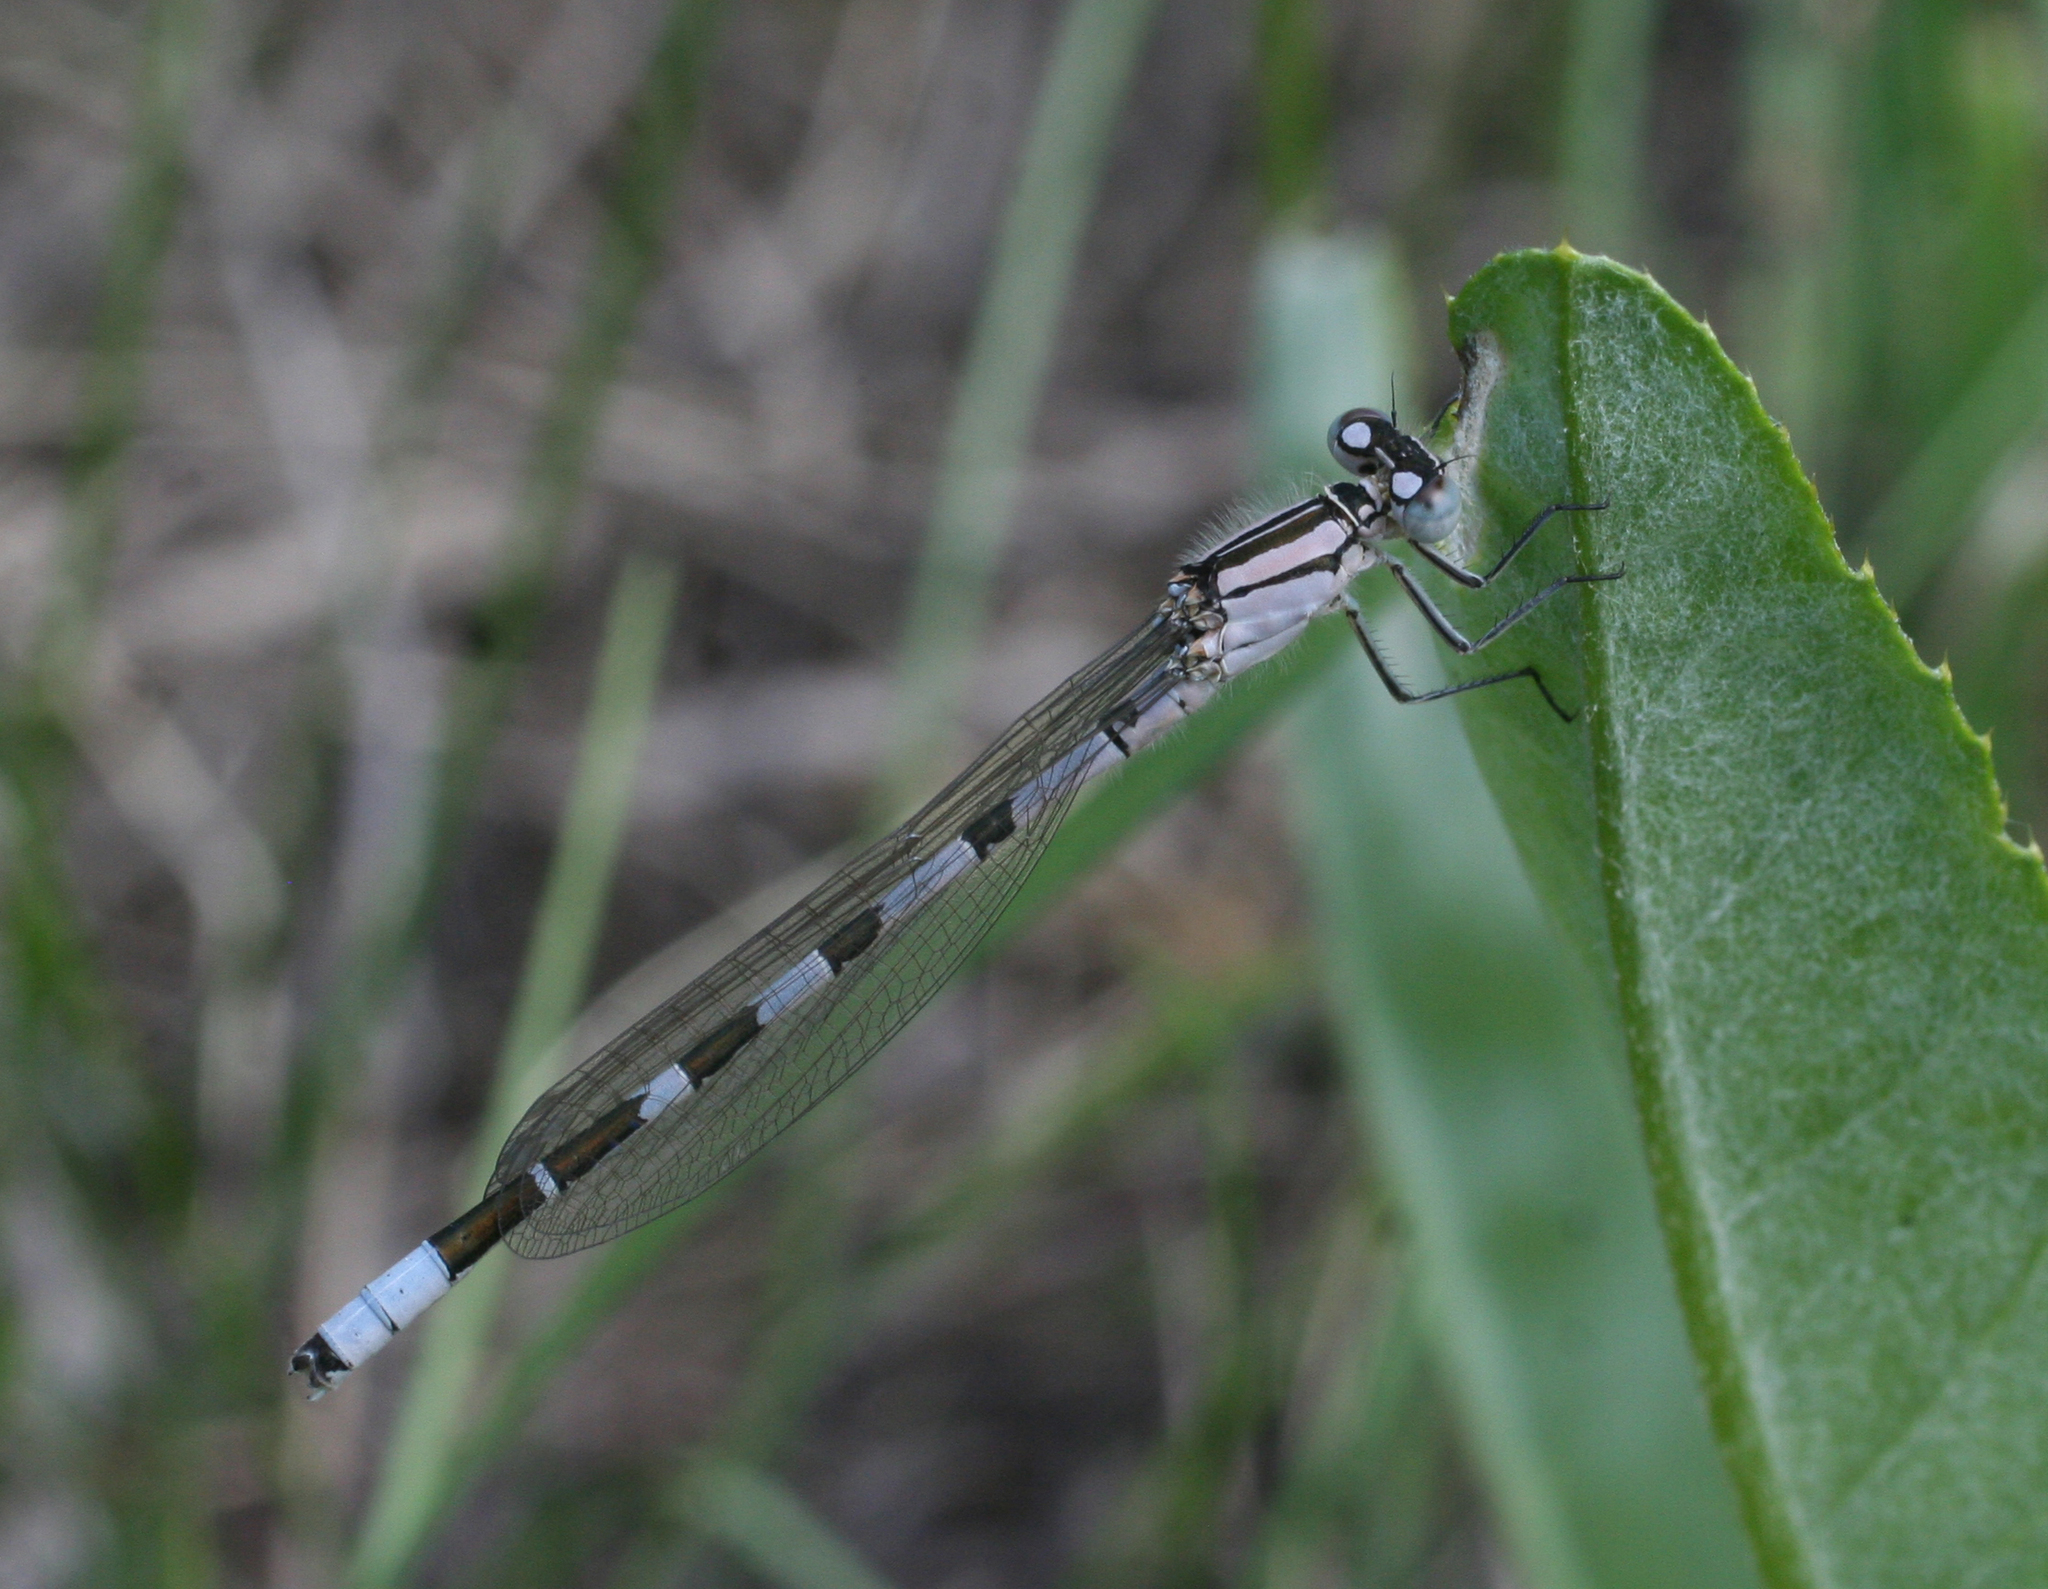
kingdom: Animalia
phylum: Arthropoda
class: Insecta
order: Odonata
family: Coenagrionidae
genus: Enallagma
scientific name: Enallagma cyathigerum
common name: Common blue damselfly
